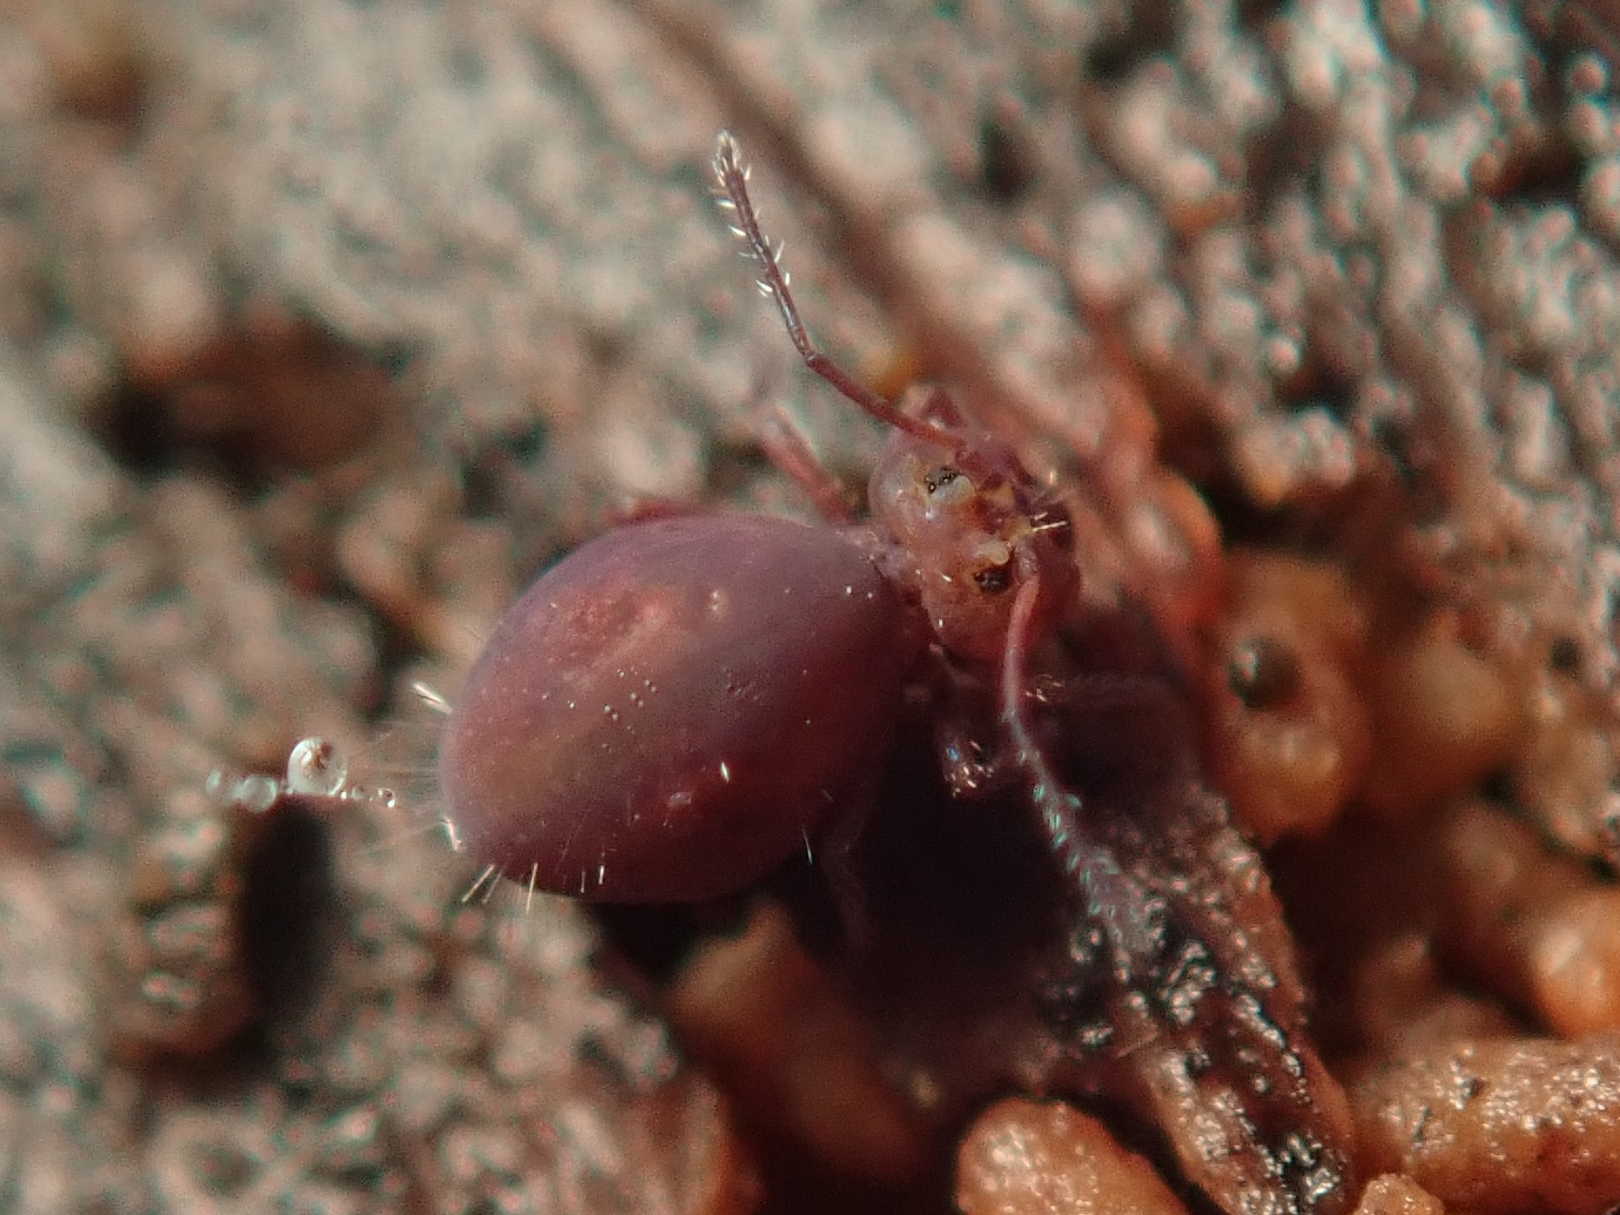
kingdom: Animalia
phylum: Arthropoda
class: Collembola
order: Symphypleona
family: Dicyrtomidae
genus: Dicyrtoma
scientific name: Dicyrtoma fusca
